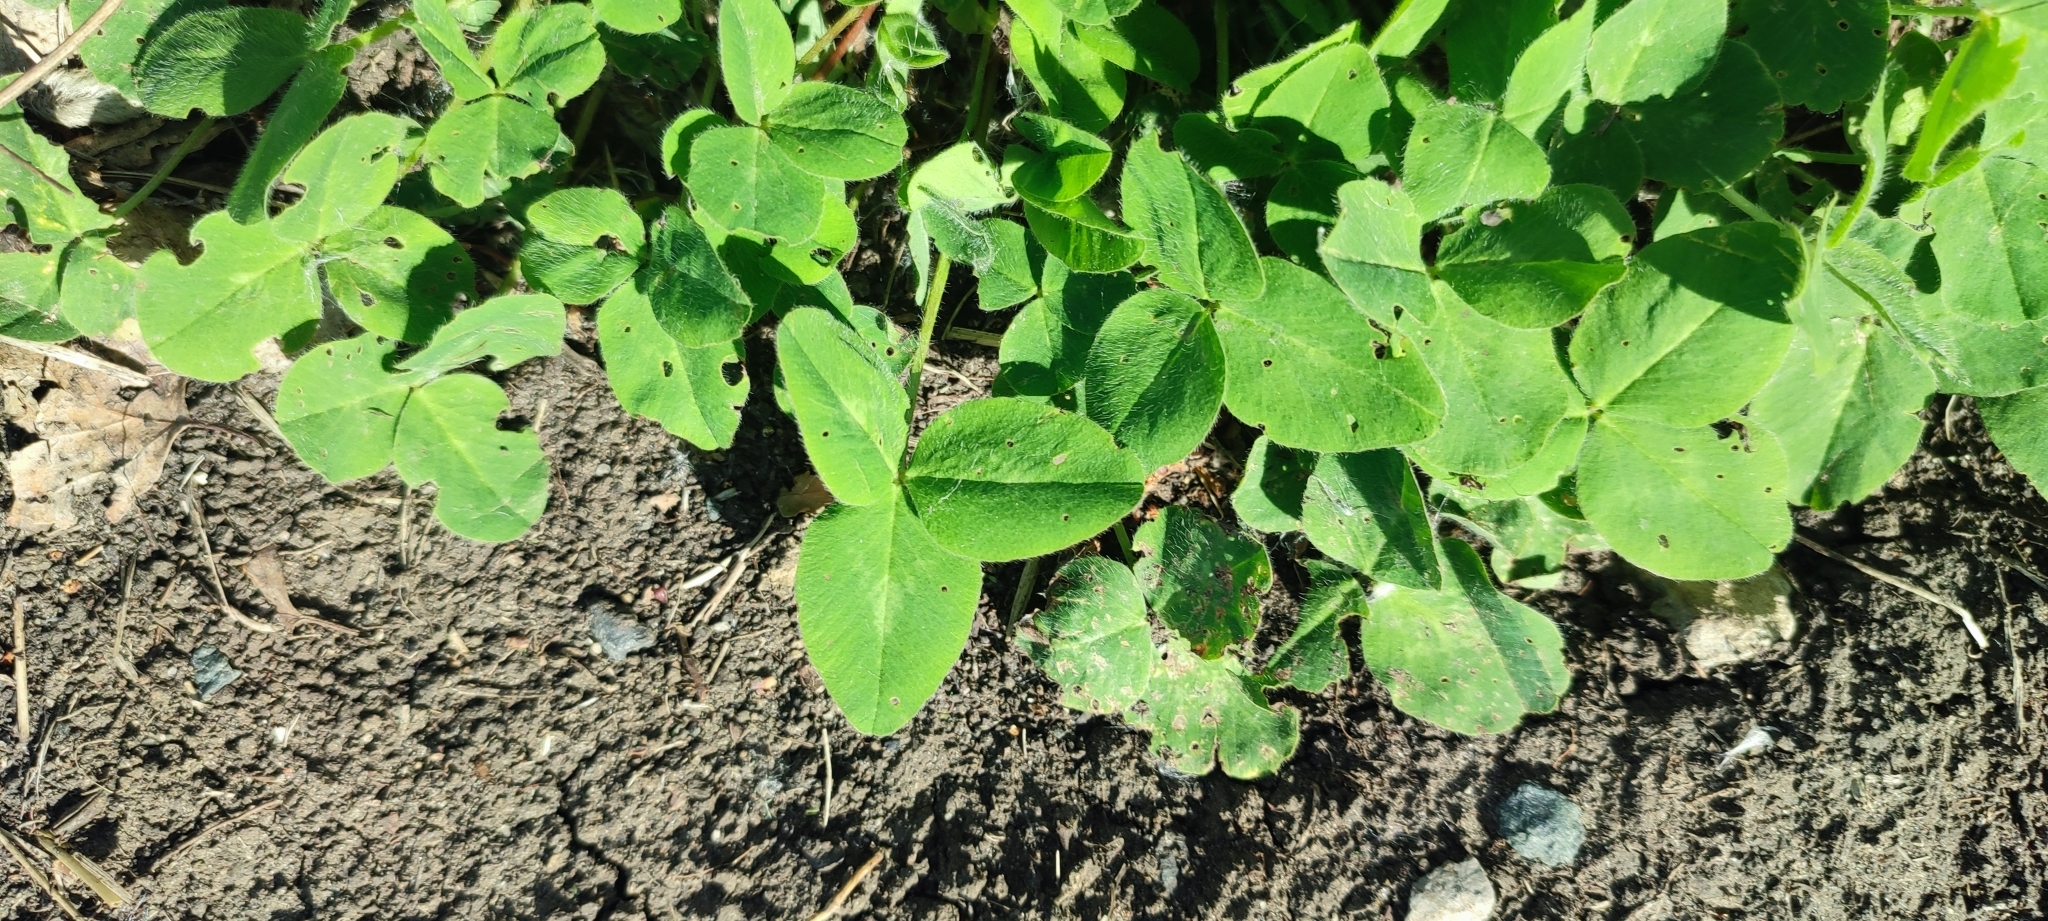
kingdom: Plantae
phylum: Tracheophyta
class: Magnoliopsida
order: Fabales
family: Fabaceae
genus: Trifolium
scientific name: Trifolium pratense
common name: Red clover
